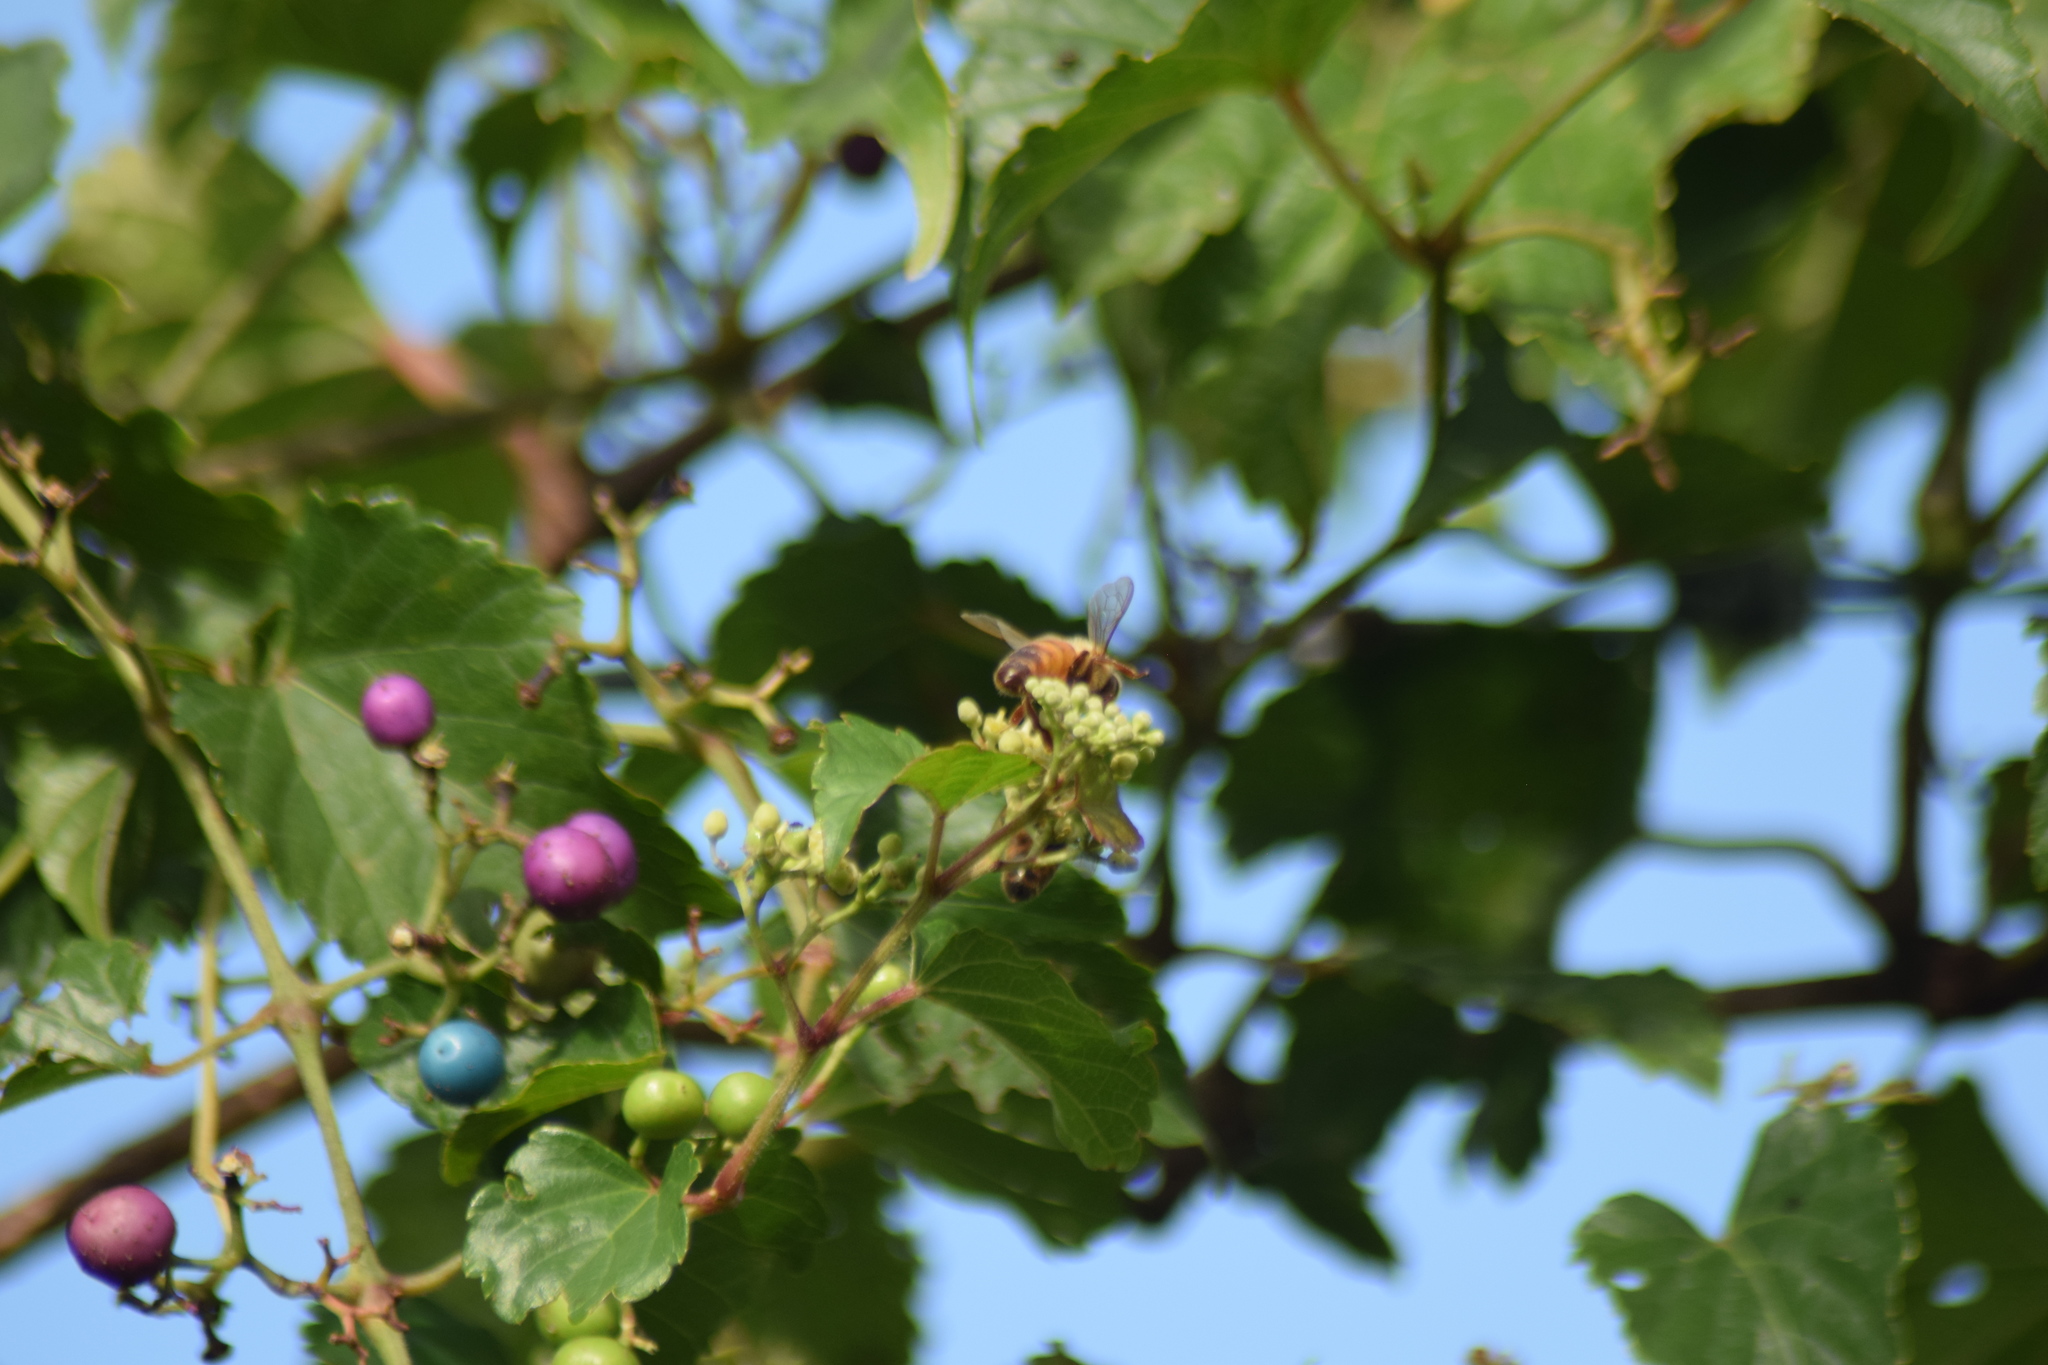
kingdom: Animalia
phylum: Arthropoda
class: Insecta
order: Hymenoptera
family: Apidae
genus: Apis
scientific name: Apis mellifera
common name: Honey bee
